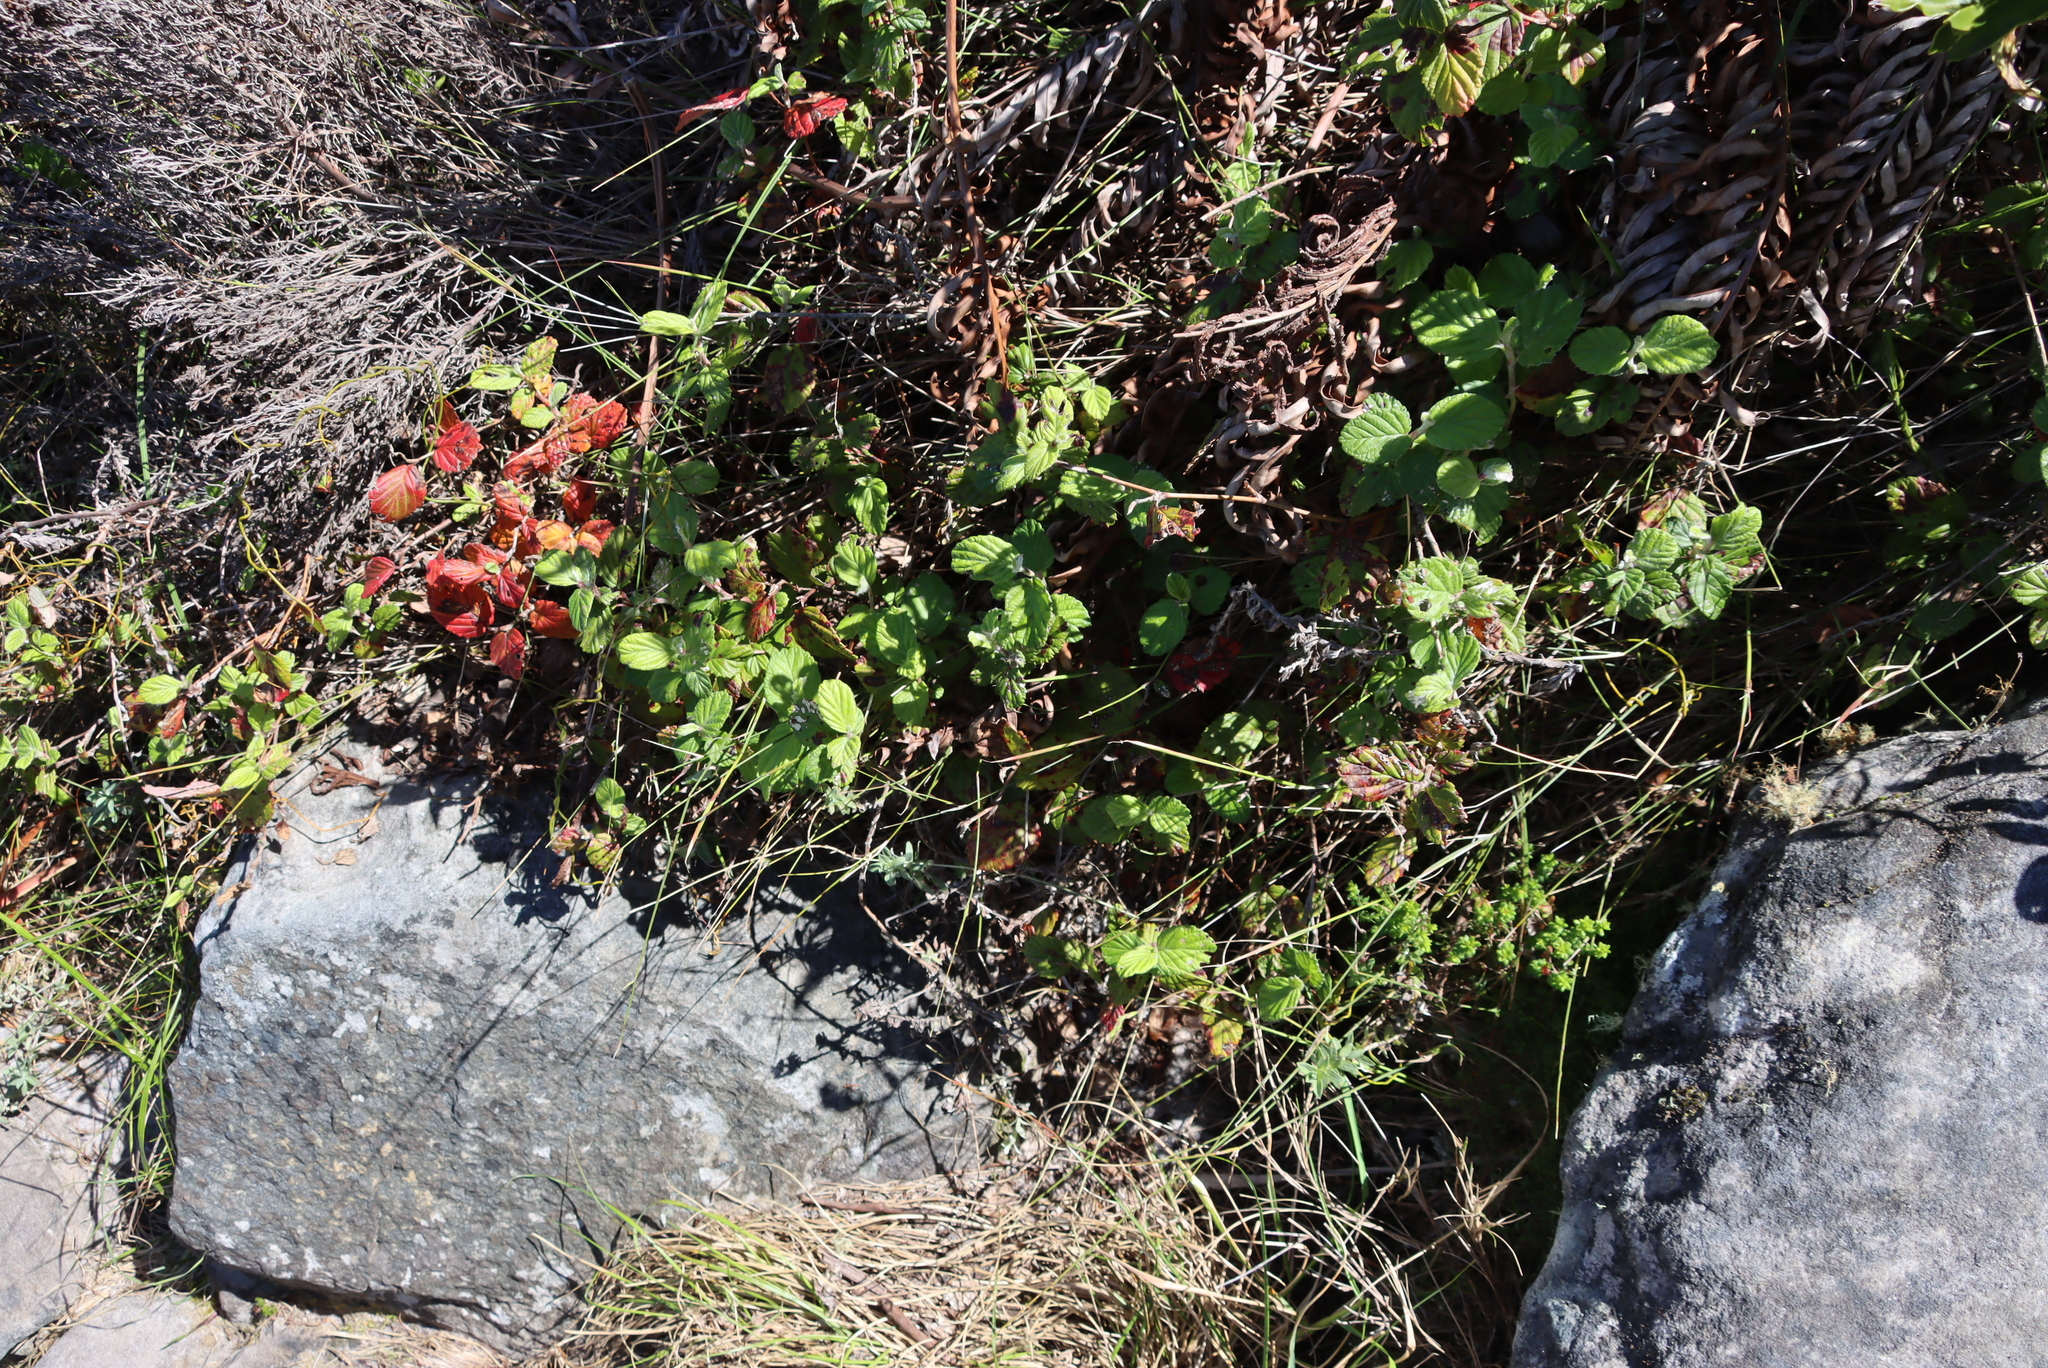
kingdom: Plantae
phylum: Tracheophyta
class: Magnoliopsida
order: Rosales
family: Rosaceae
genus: Cliffortia
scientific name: Cliffortia odorata
